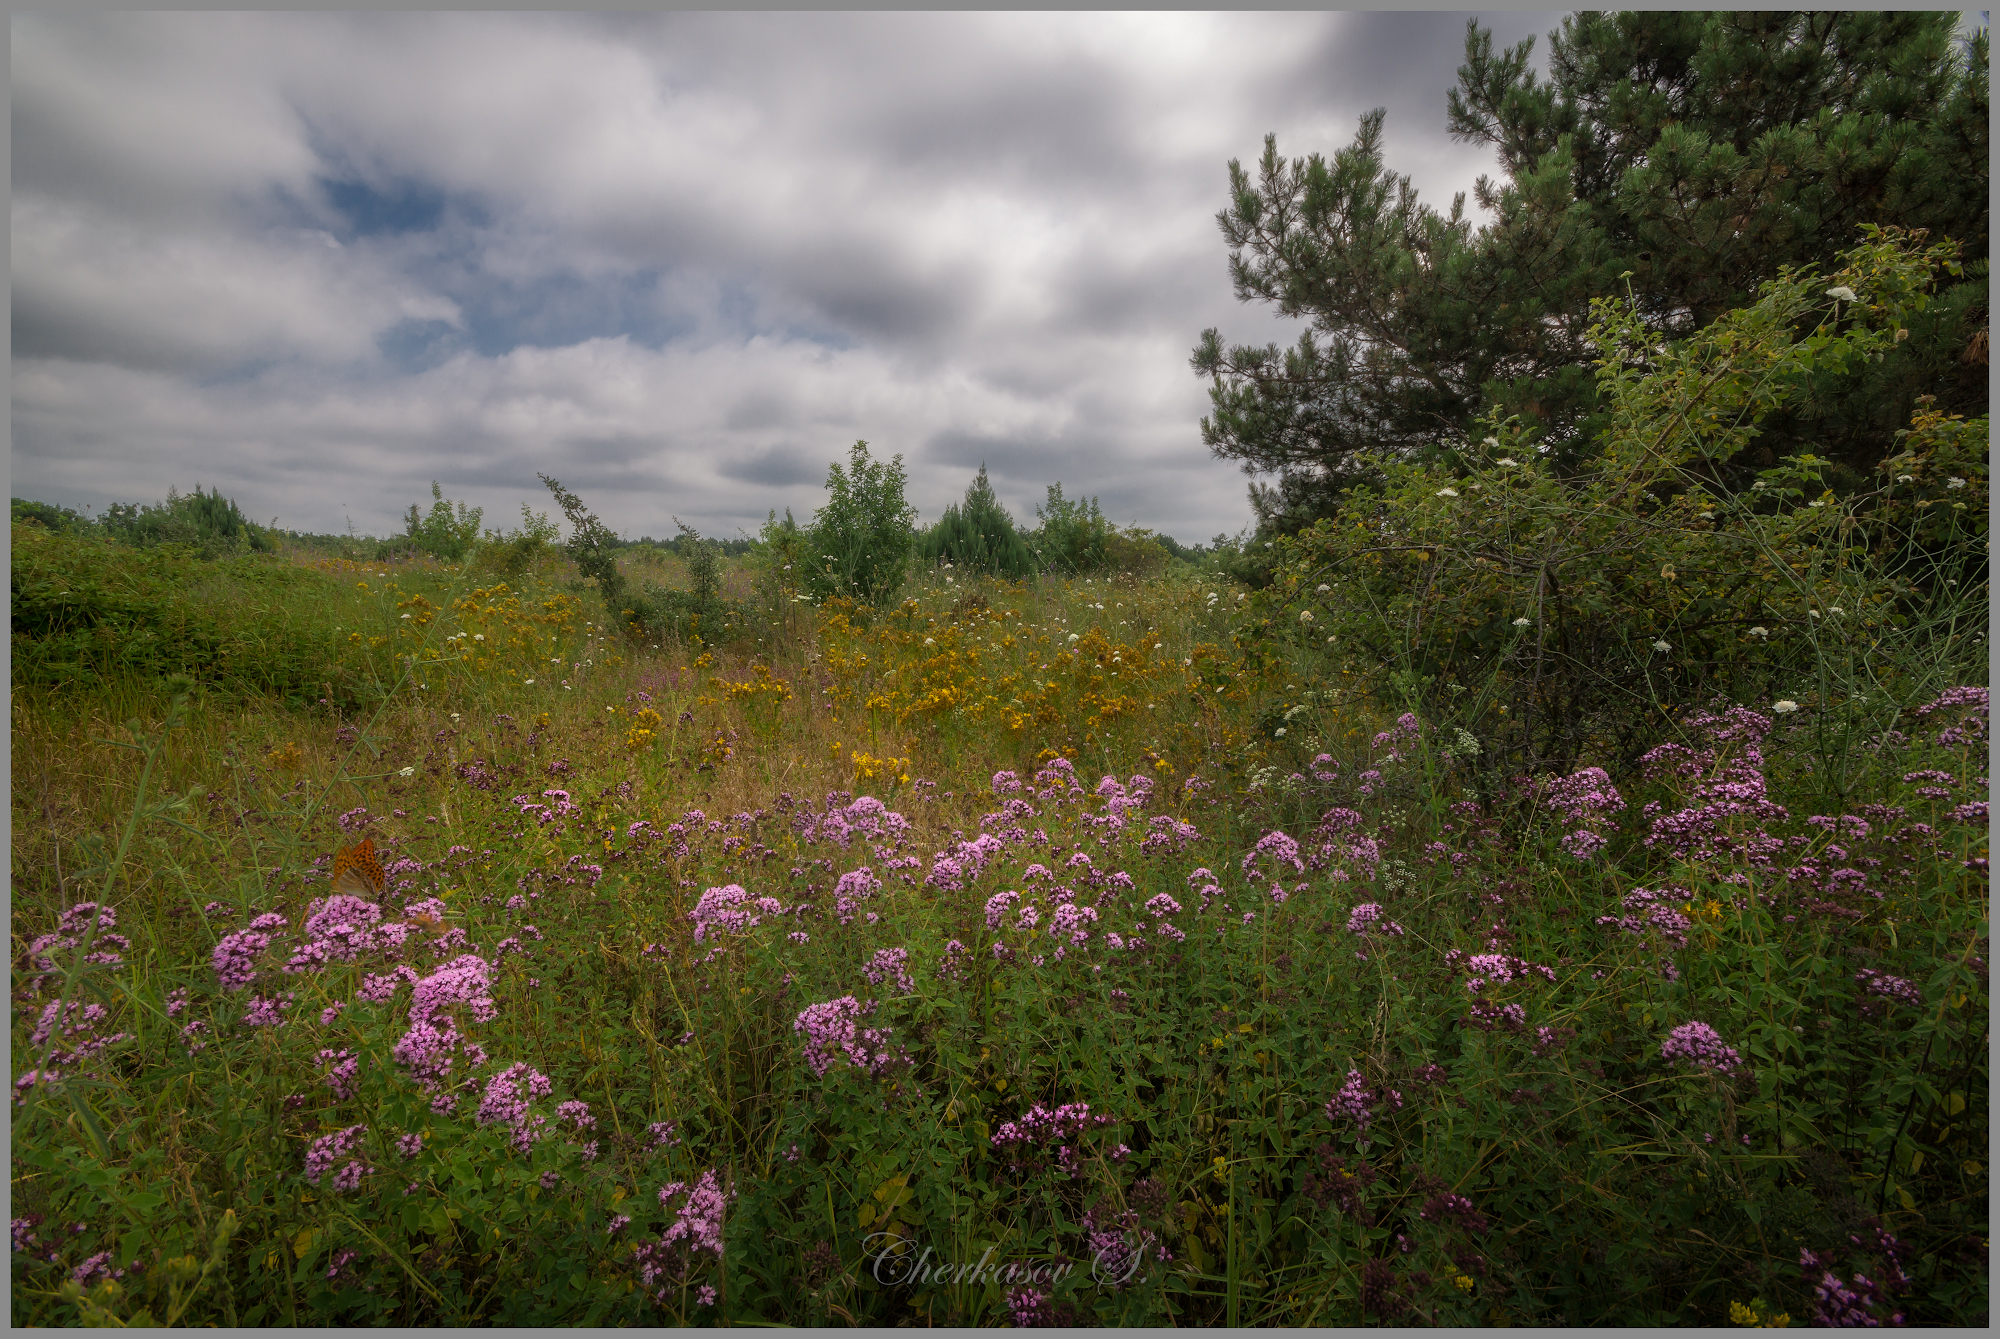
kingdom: Plantae
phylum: Tracheophyta
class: Magnoliopsida
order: Lamiales
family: Lamiaceae
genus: Origanum
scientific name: Origanum vulgare
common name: Wild marjoram
